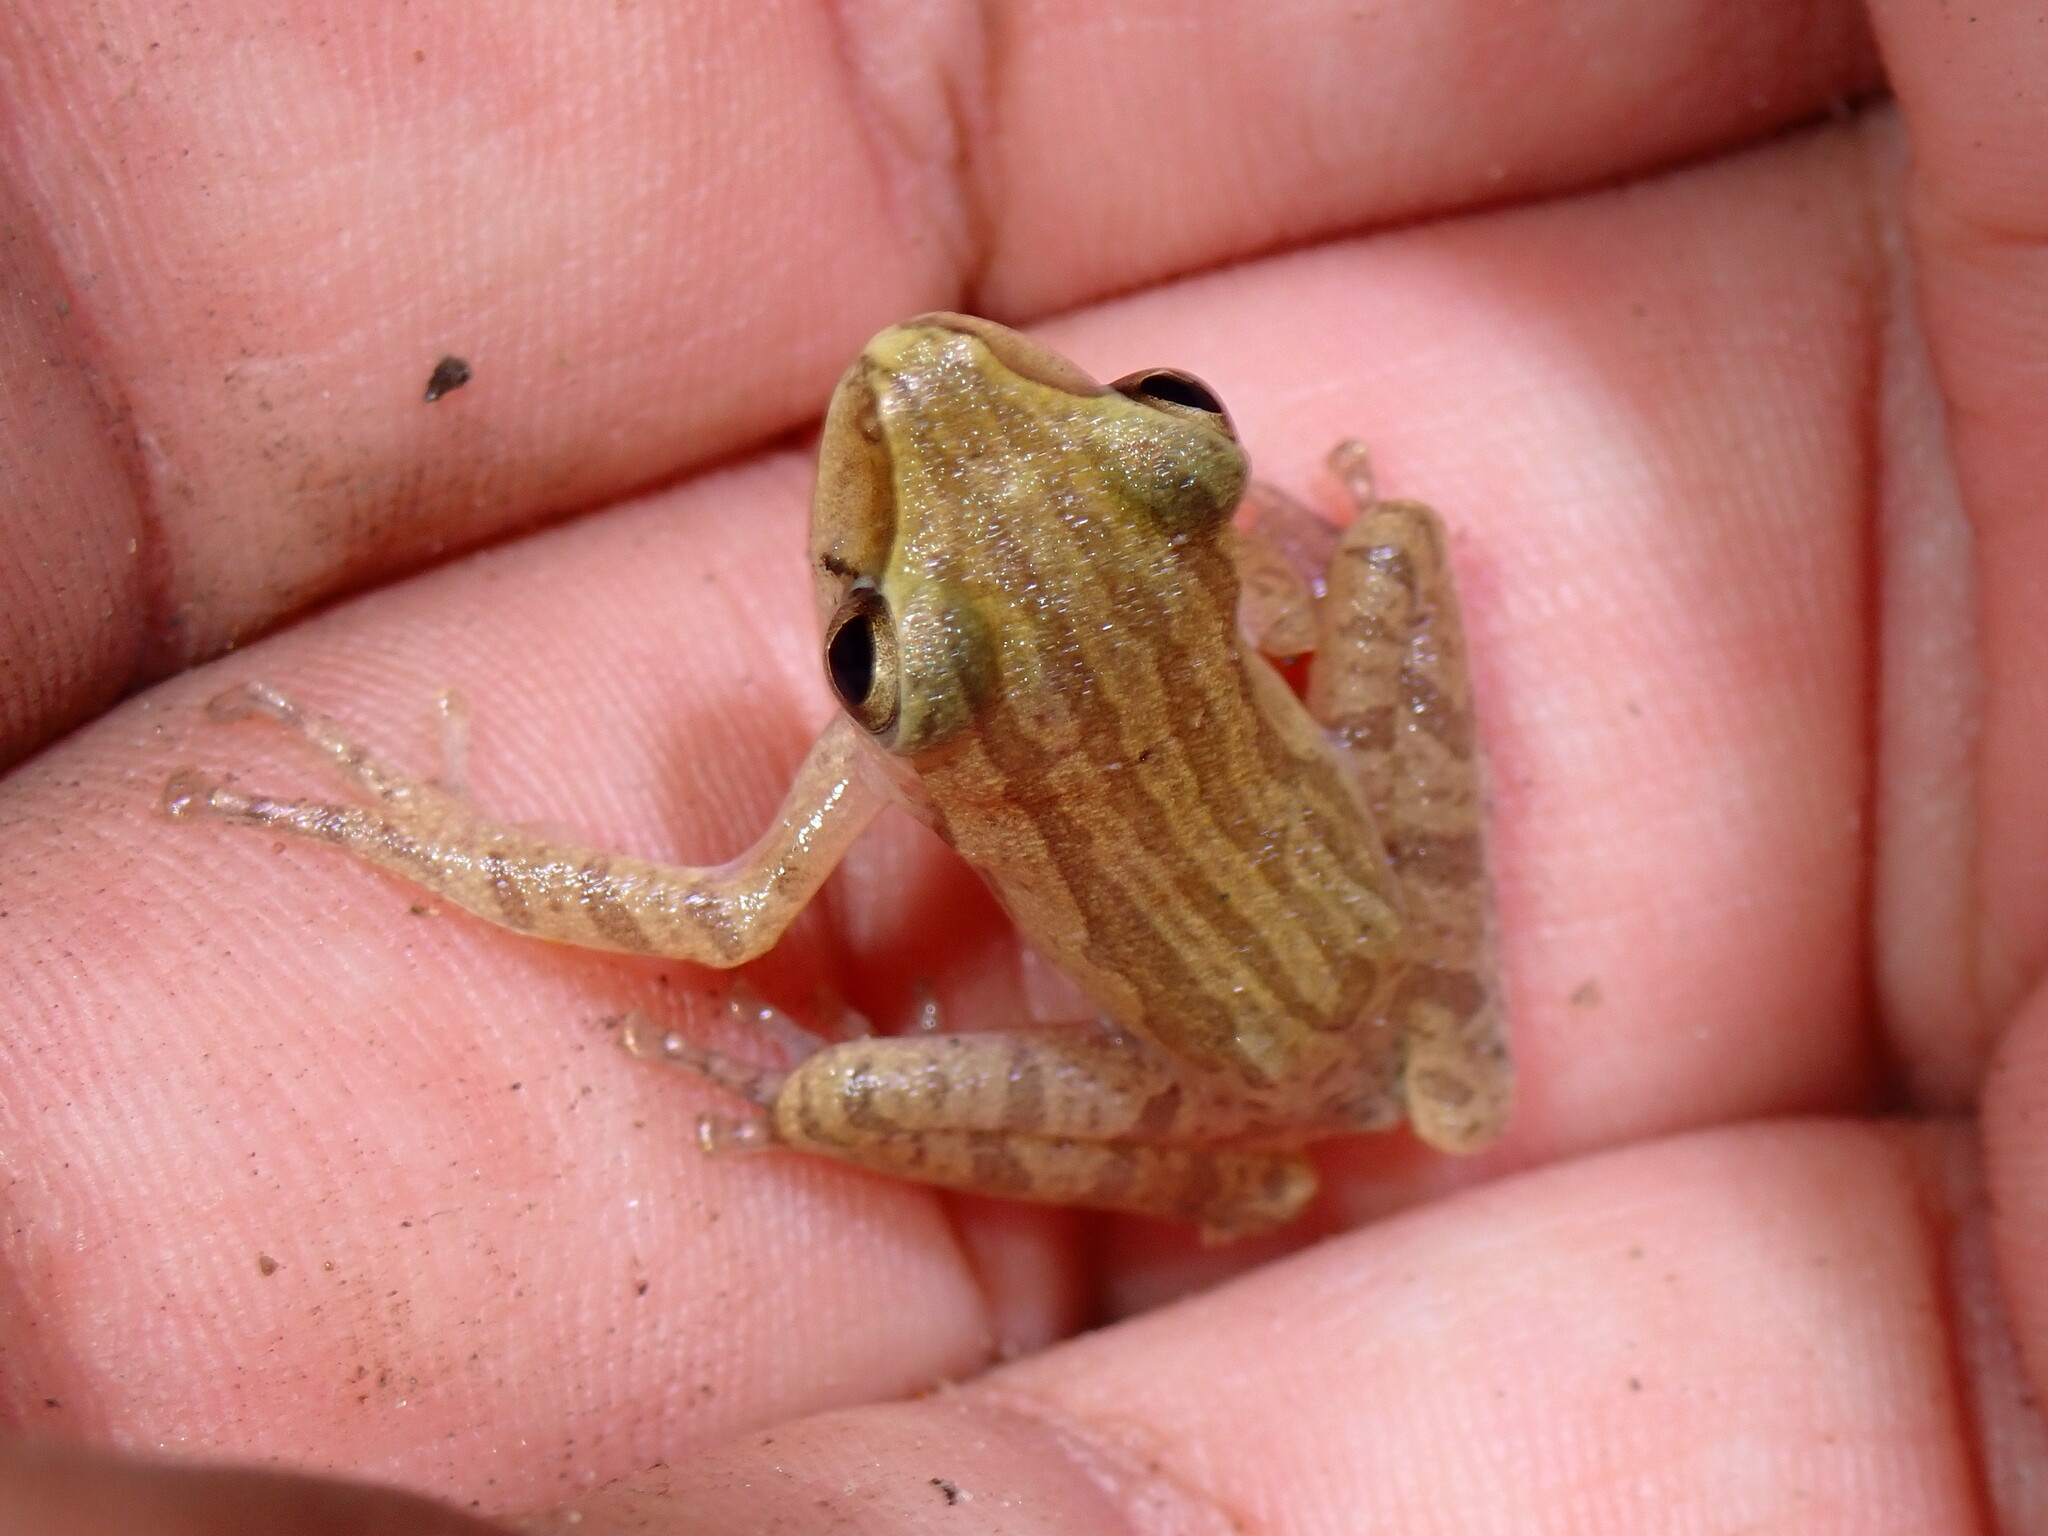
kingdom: Animalia
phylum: Chordata
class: Amphibia
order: Anura
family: Rhacophoridae
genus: Polypedates
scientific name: Polypedates megacephalus
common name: Hong kong whipping frog
